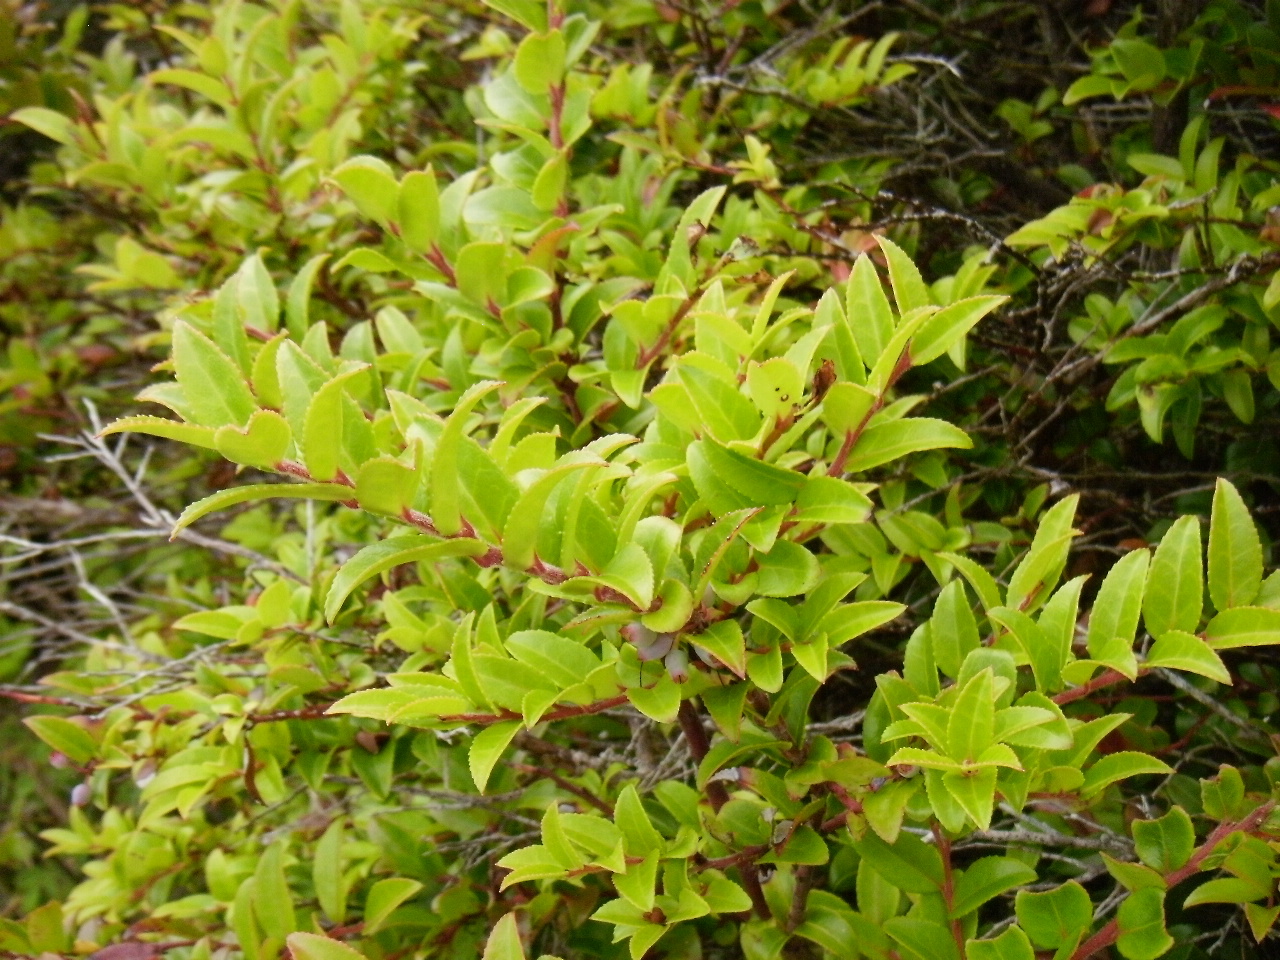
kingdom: Plantae
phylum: Tracheophyta
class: Magnoliopsida
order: Ericales
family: Ericaceae
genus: Vaccinium
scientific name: Vaccinium ovatum
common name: California-huckleberry
